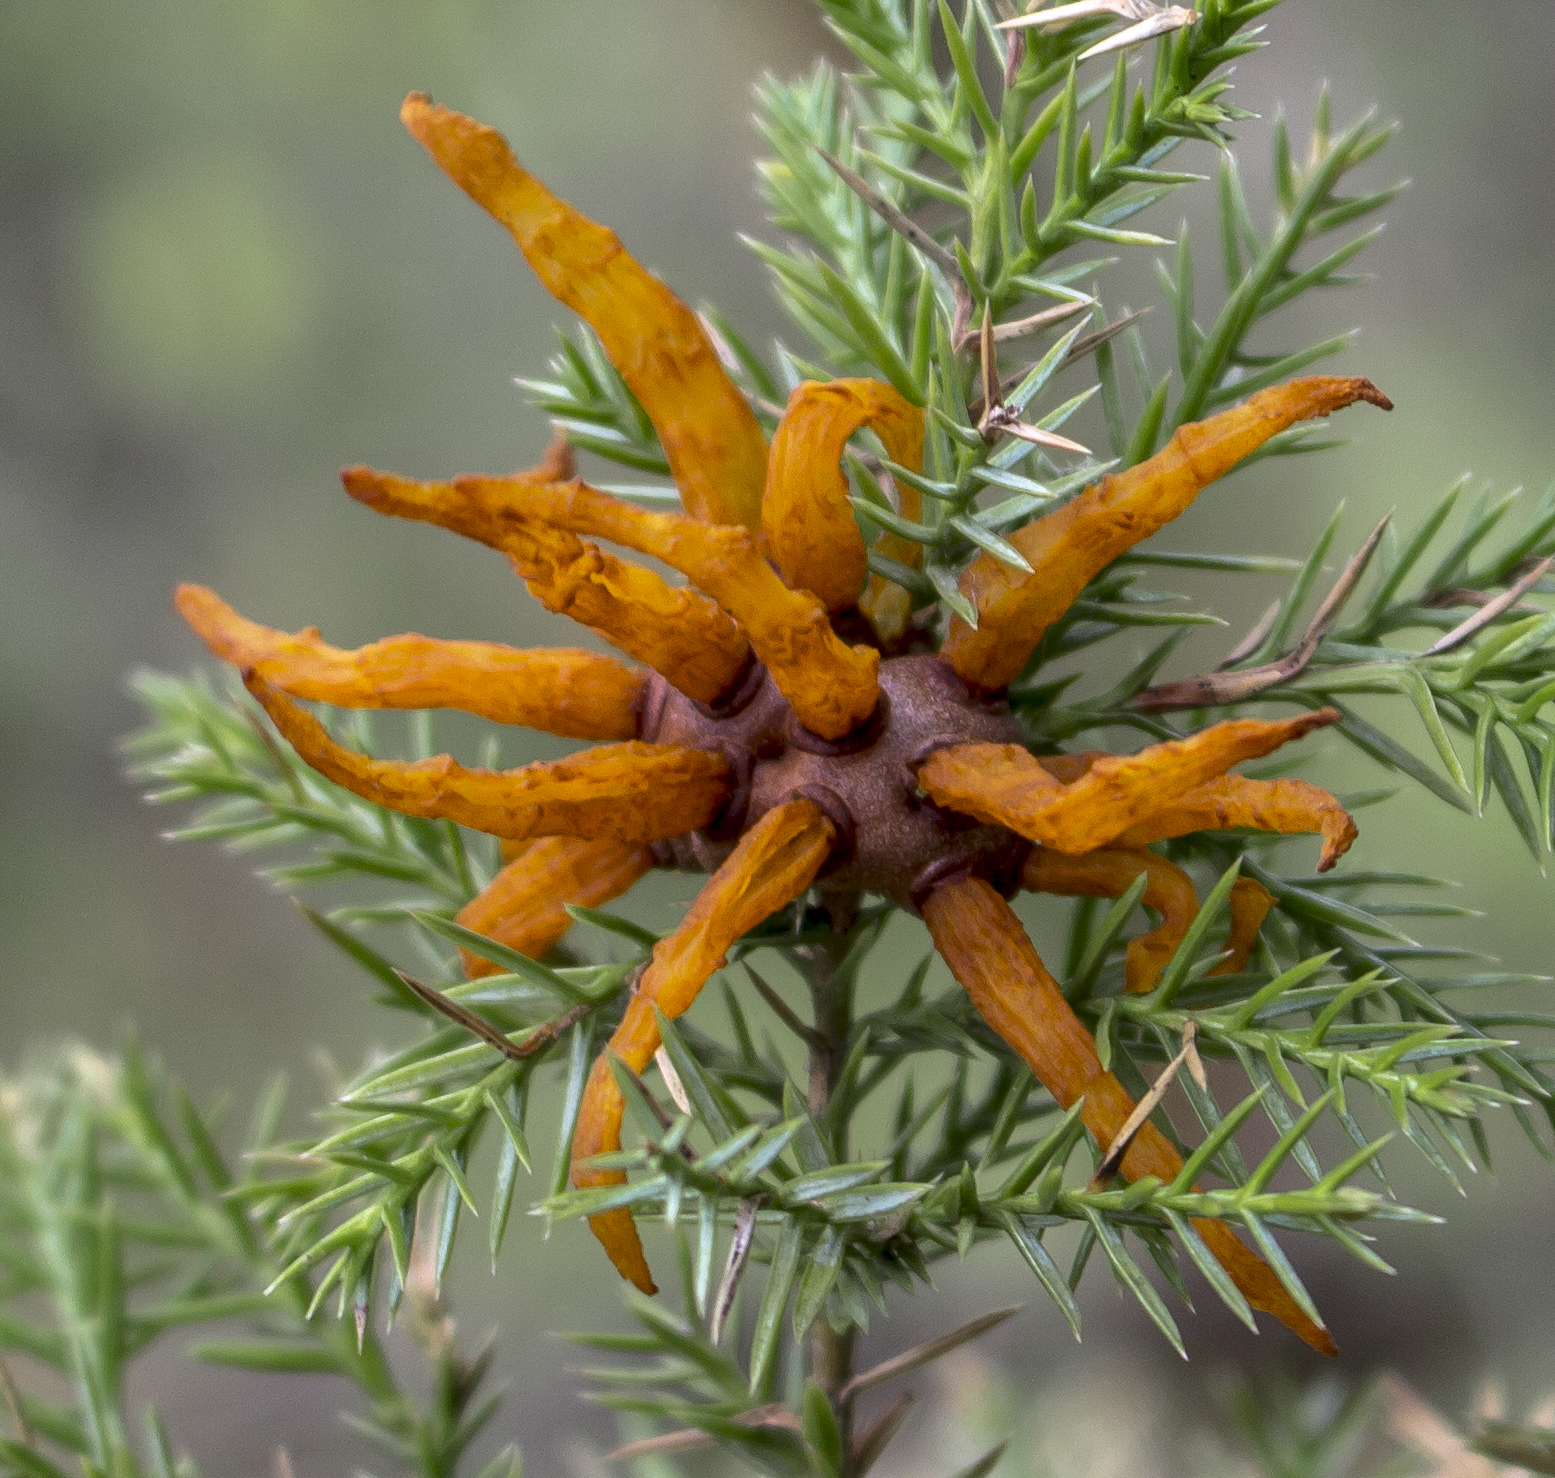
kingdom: Fungi
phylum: Basidiomycota
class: Pucciniomycetes
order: Pucciniales
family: Gymnosporangiaceae
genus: Gymnosporangium
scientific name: Gymnosporangium juniperi-virginianae
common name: Juniper-apple rust
